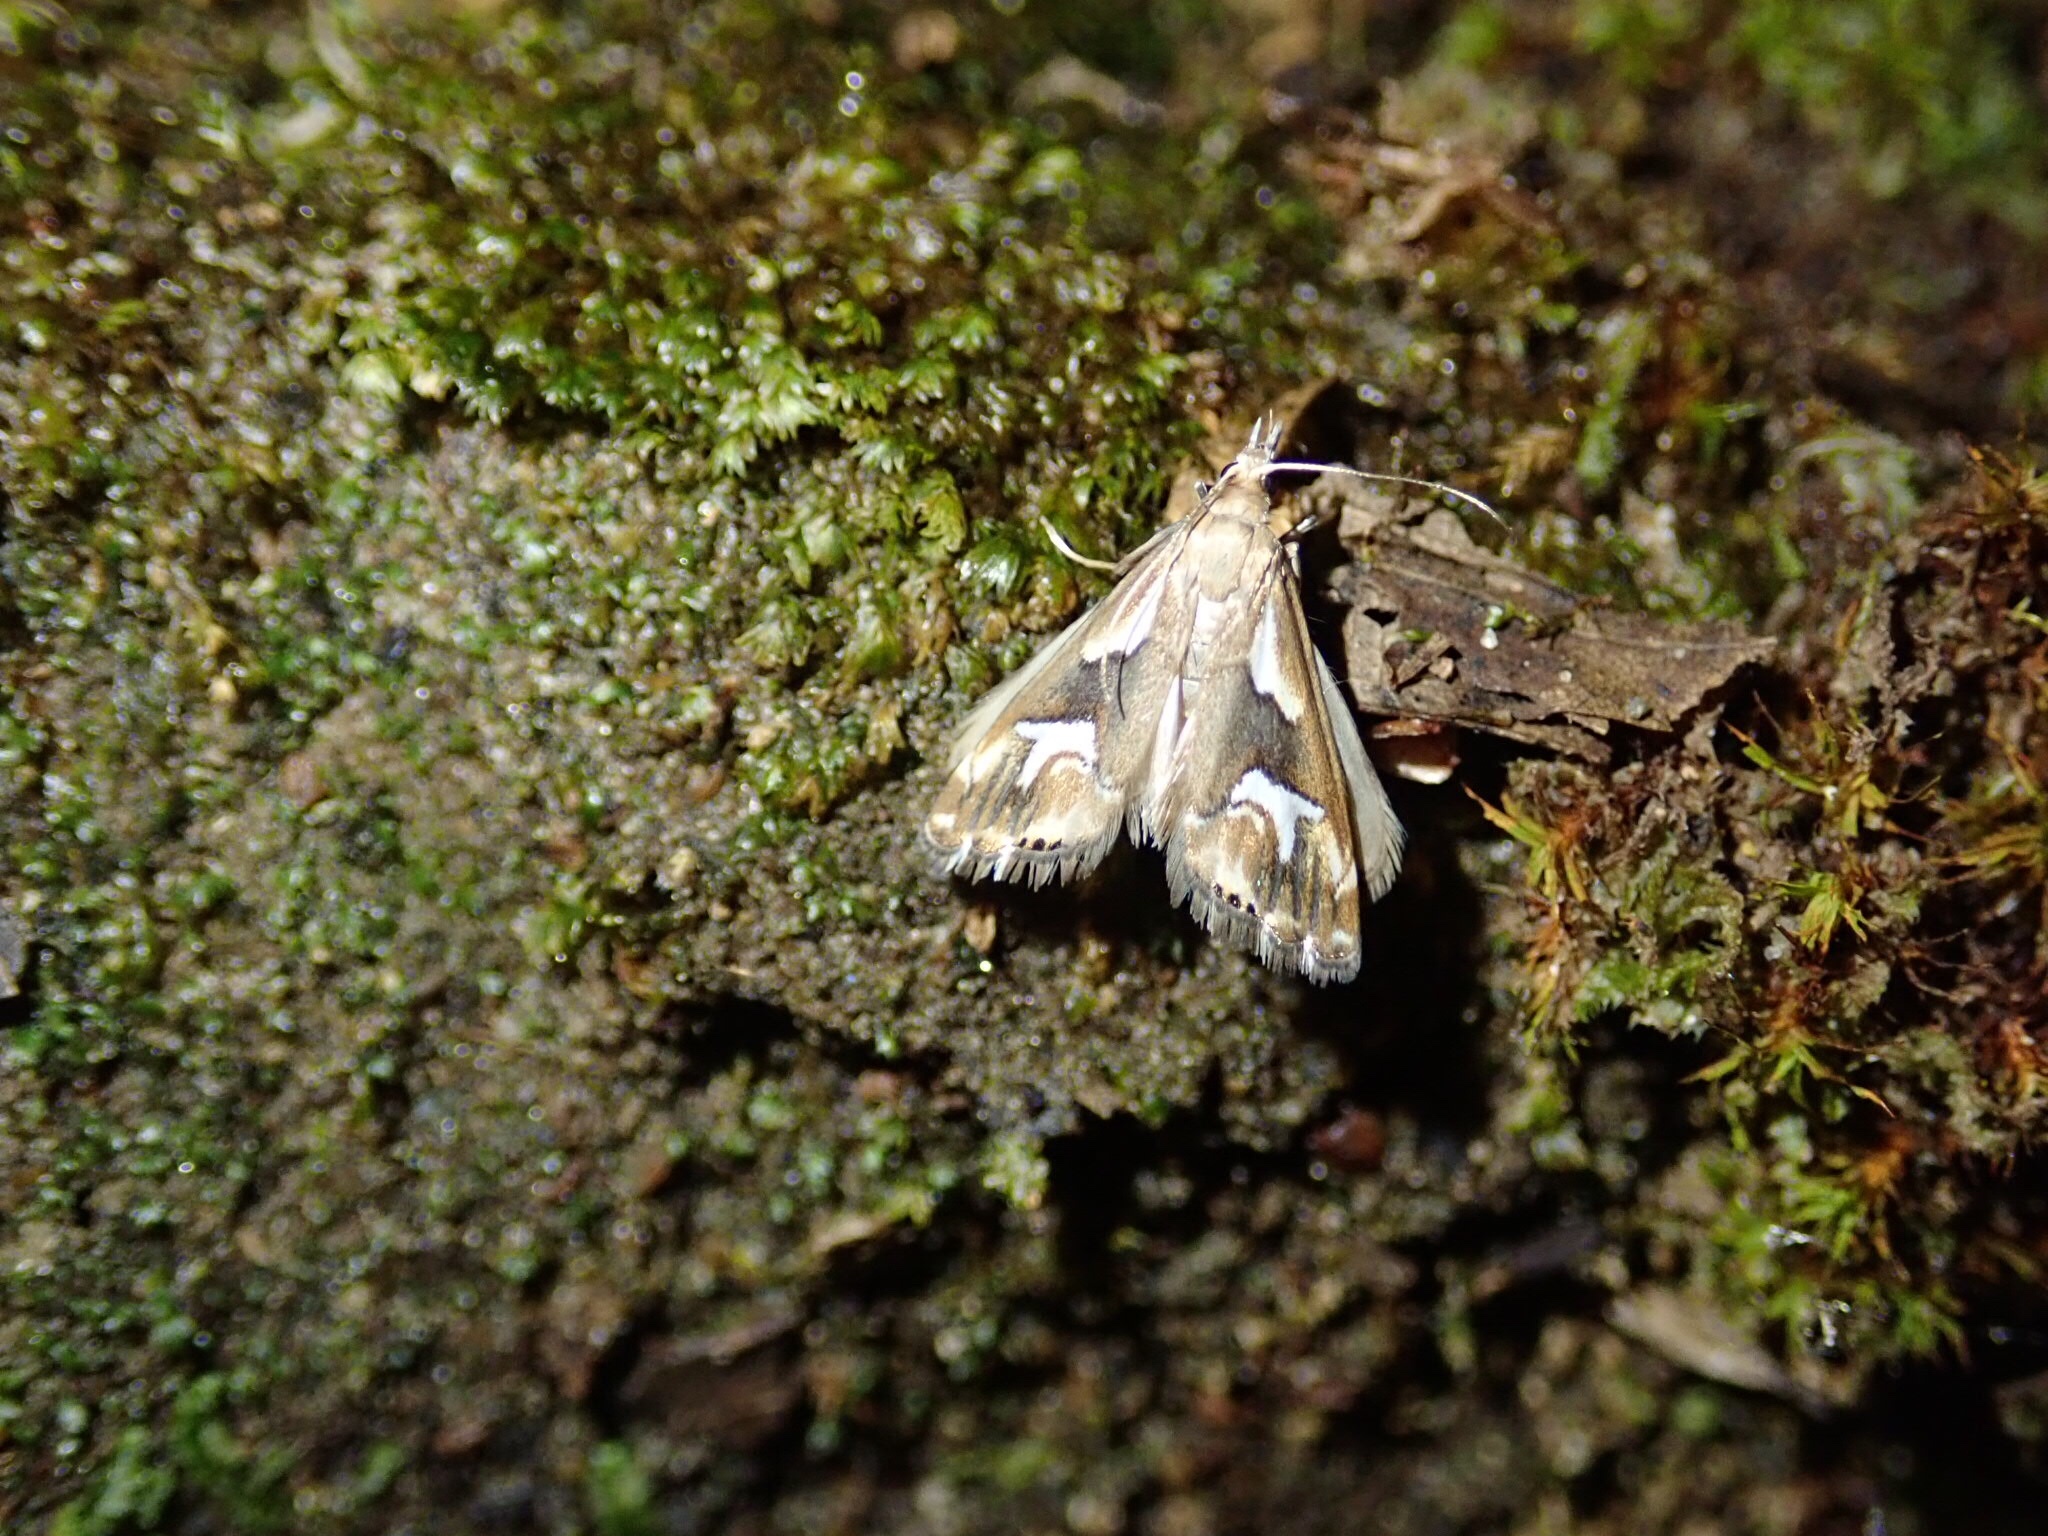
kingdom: Animalia
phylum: Arthropoda
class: Insecta
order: Lepidoptera
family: Crambidae
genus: Glaucocharis
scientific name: Glaucocharis interruptus
